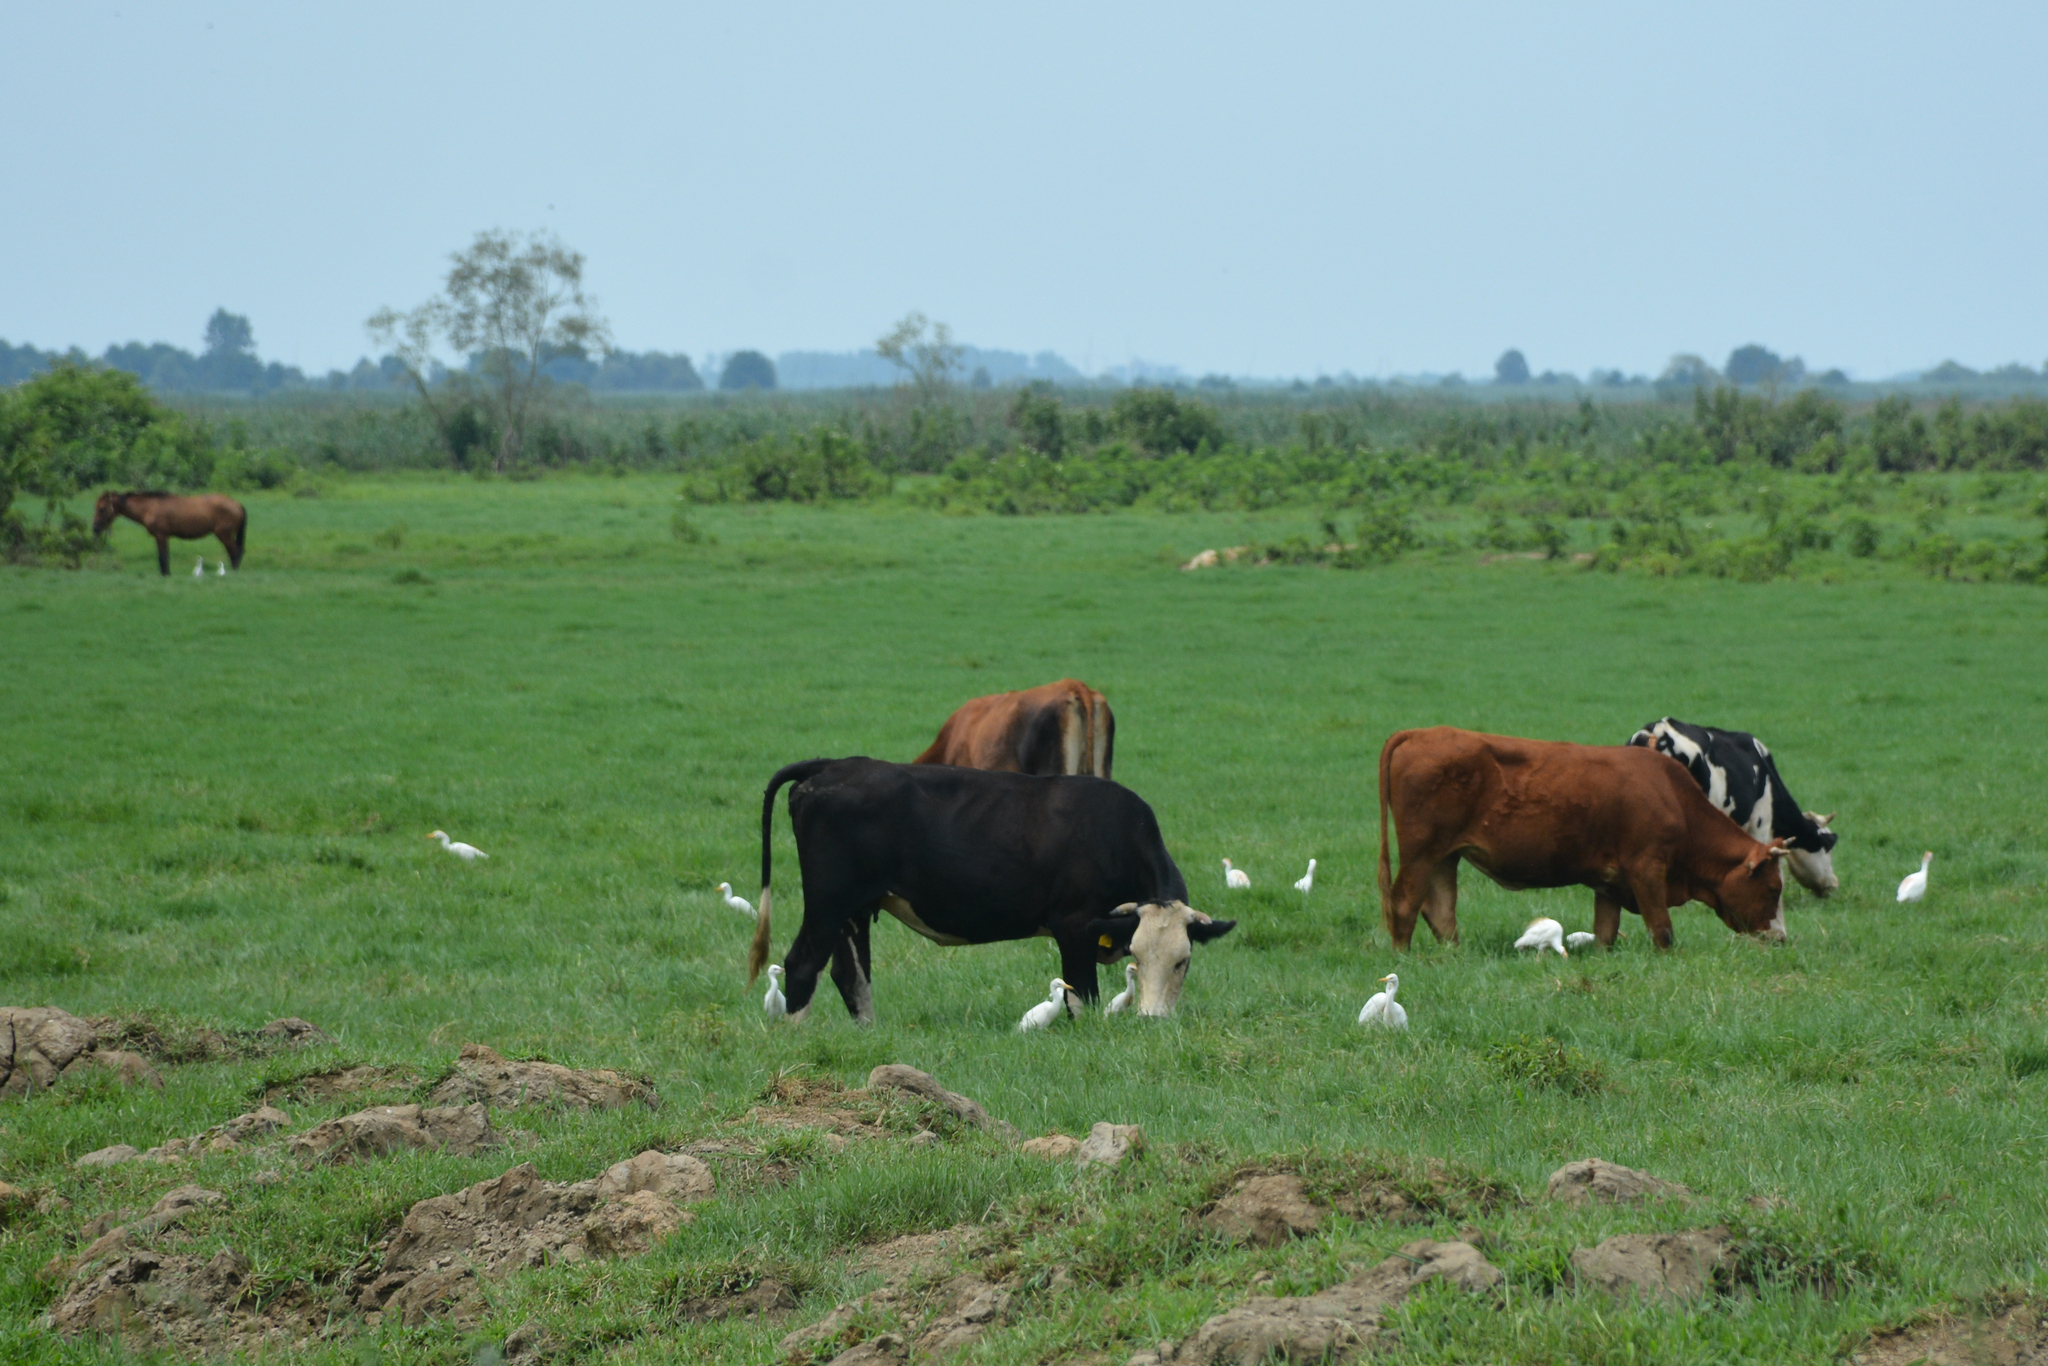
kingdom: Animalia
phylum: Chordata
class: Aves
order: Pelecaniformes
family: Ardeidae
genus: Bubulcus
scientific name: Bubulcus ibis
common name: Cattle egret
